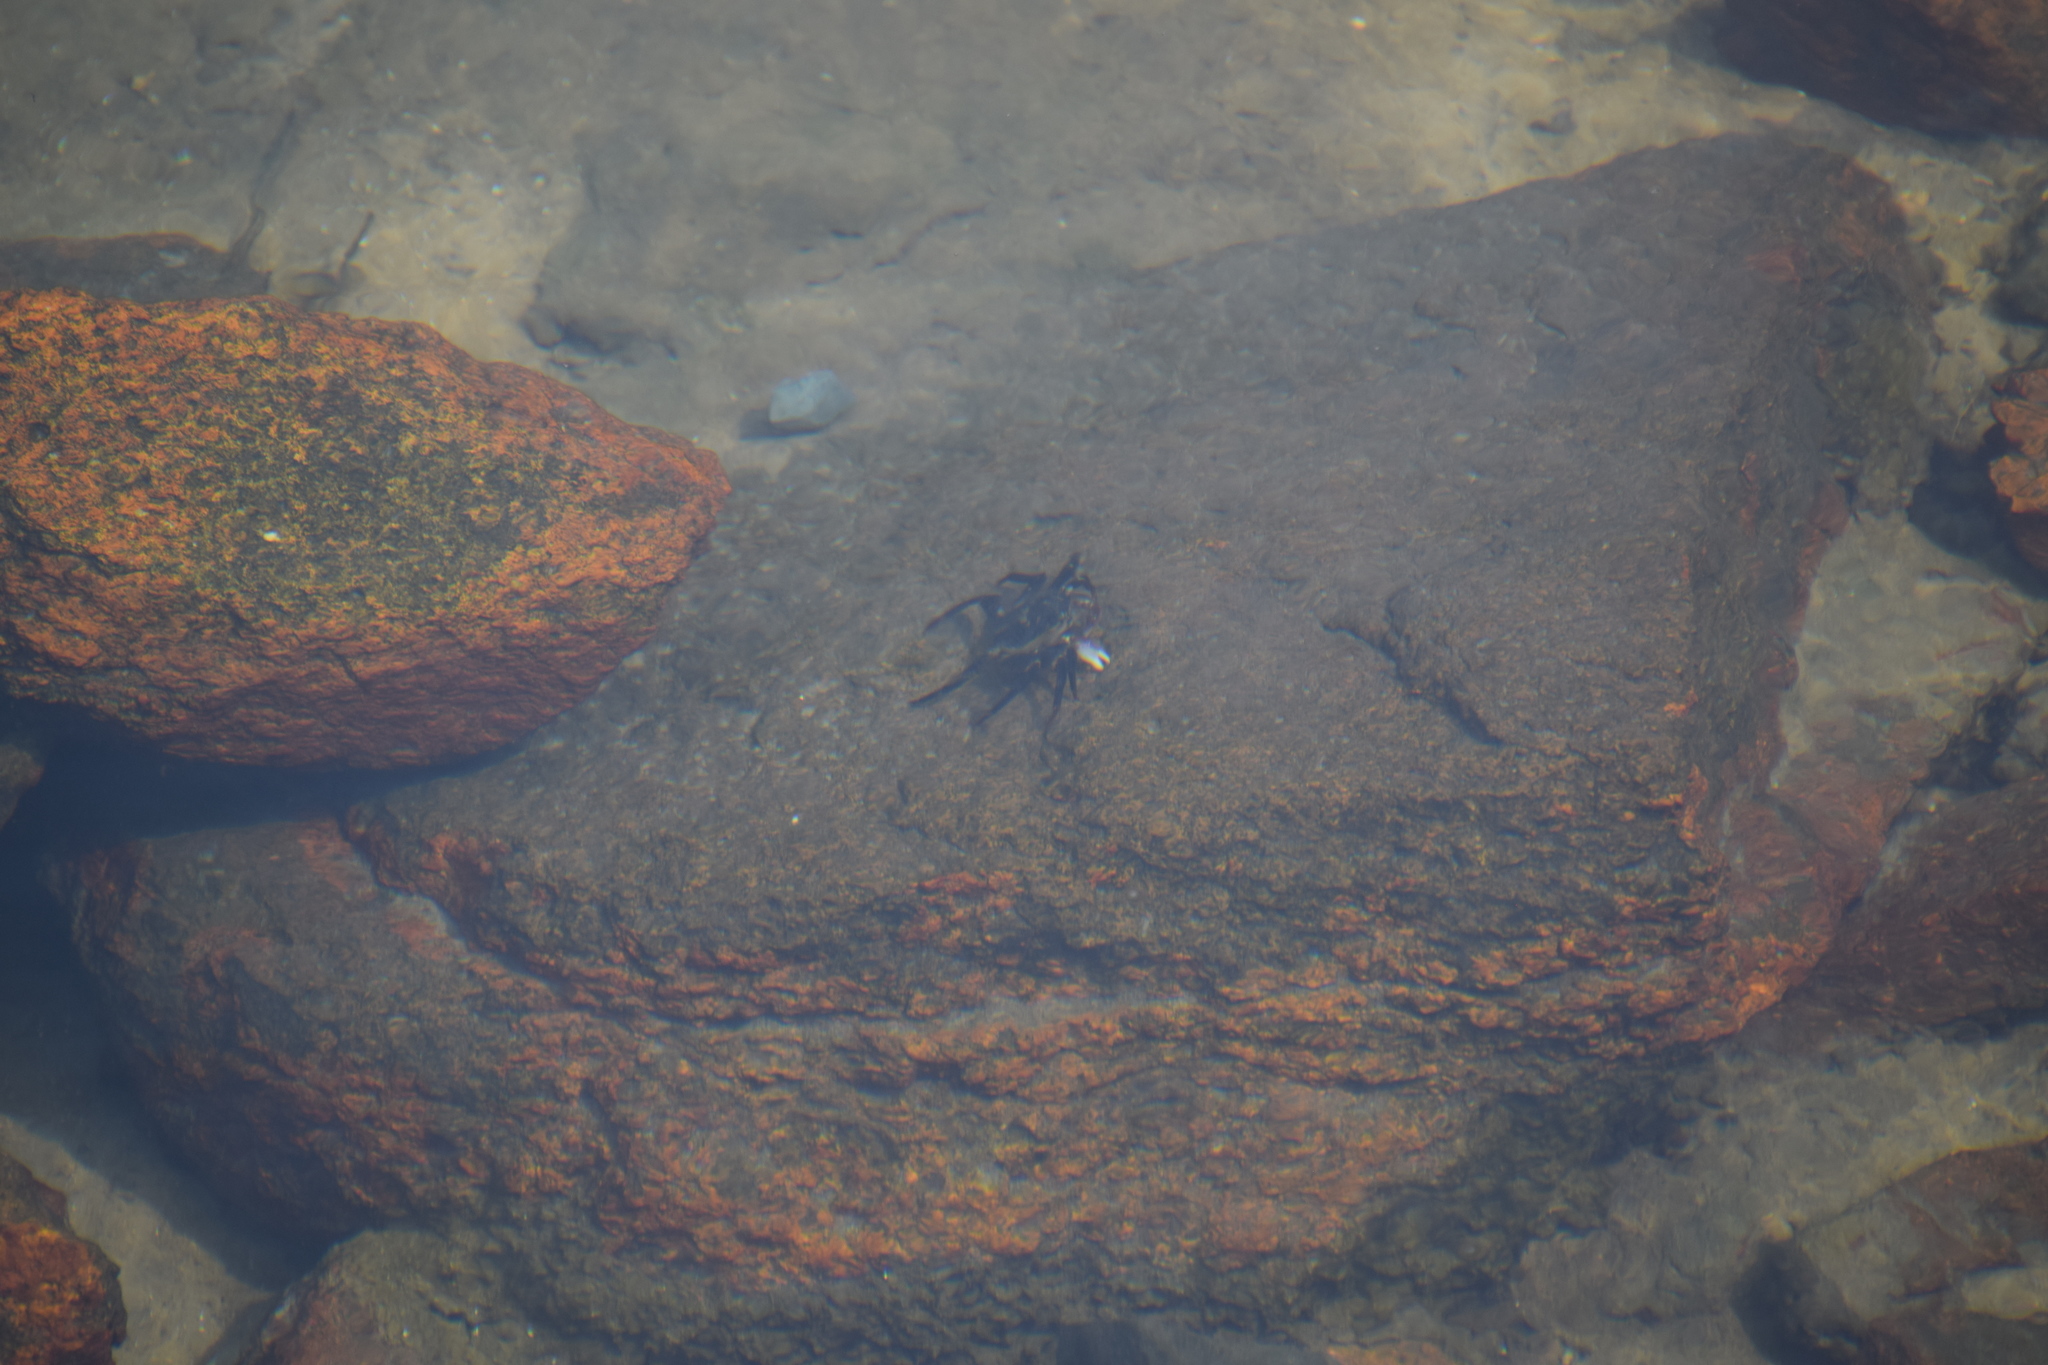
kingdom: Animalia
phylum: Arthropoda
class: Malacostraca
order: Decapoda
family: Grapsidae
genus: Leptograpsus
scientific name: Leptograpsus variegatus
